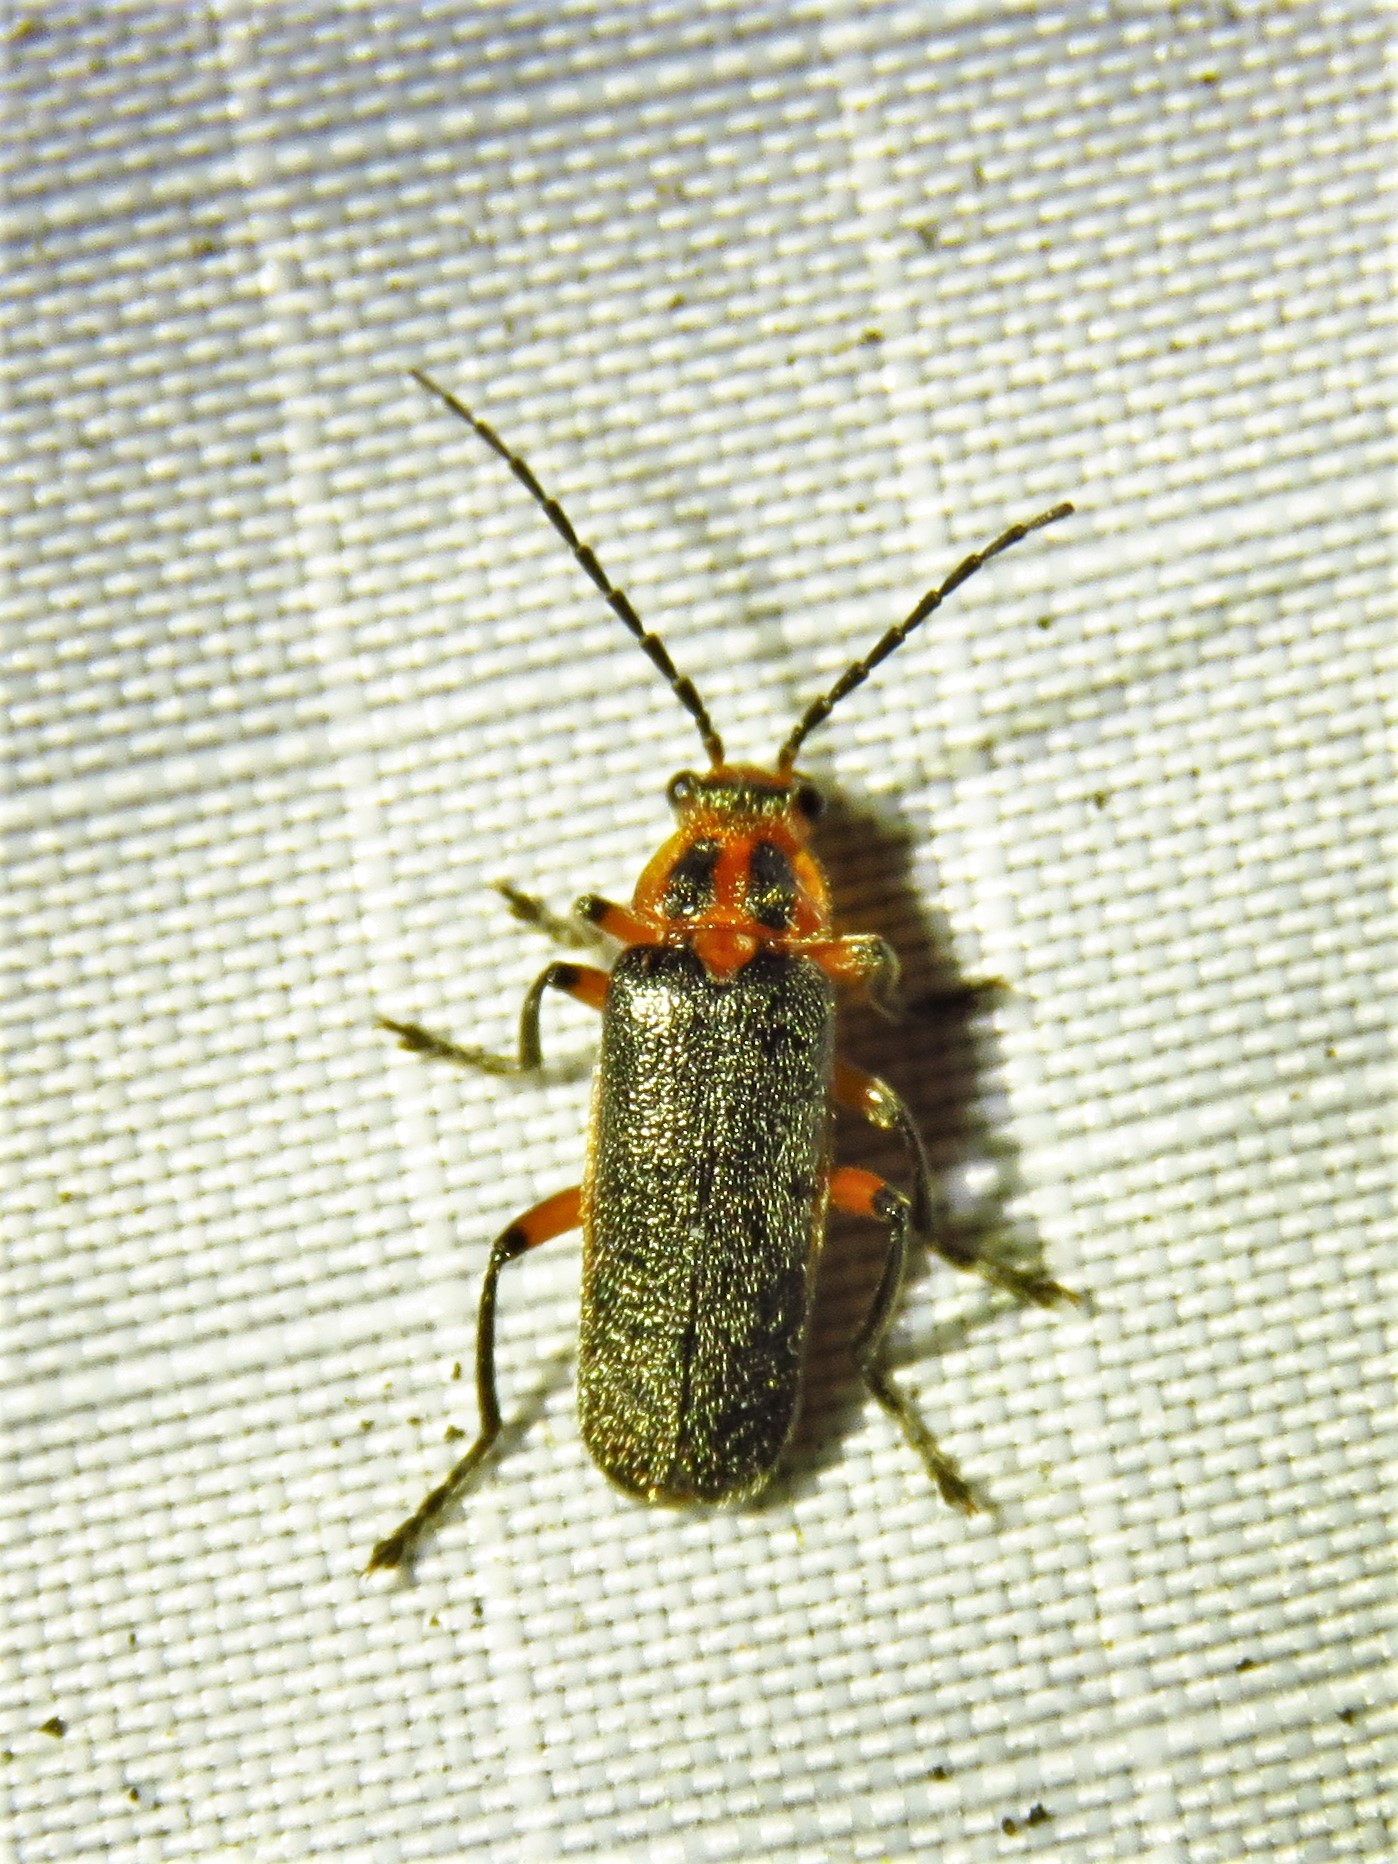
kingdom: Animalia
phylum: Arthropoda
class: Insecta
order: Coleoptera
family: Cantharidae
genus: Atalantycha
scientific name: Atalantycha bilineata
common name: Two-lined leatherwing
